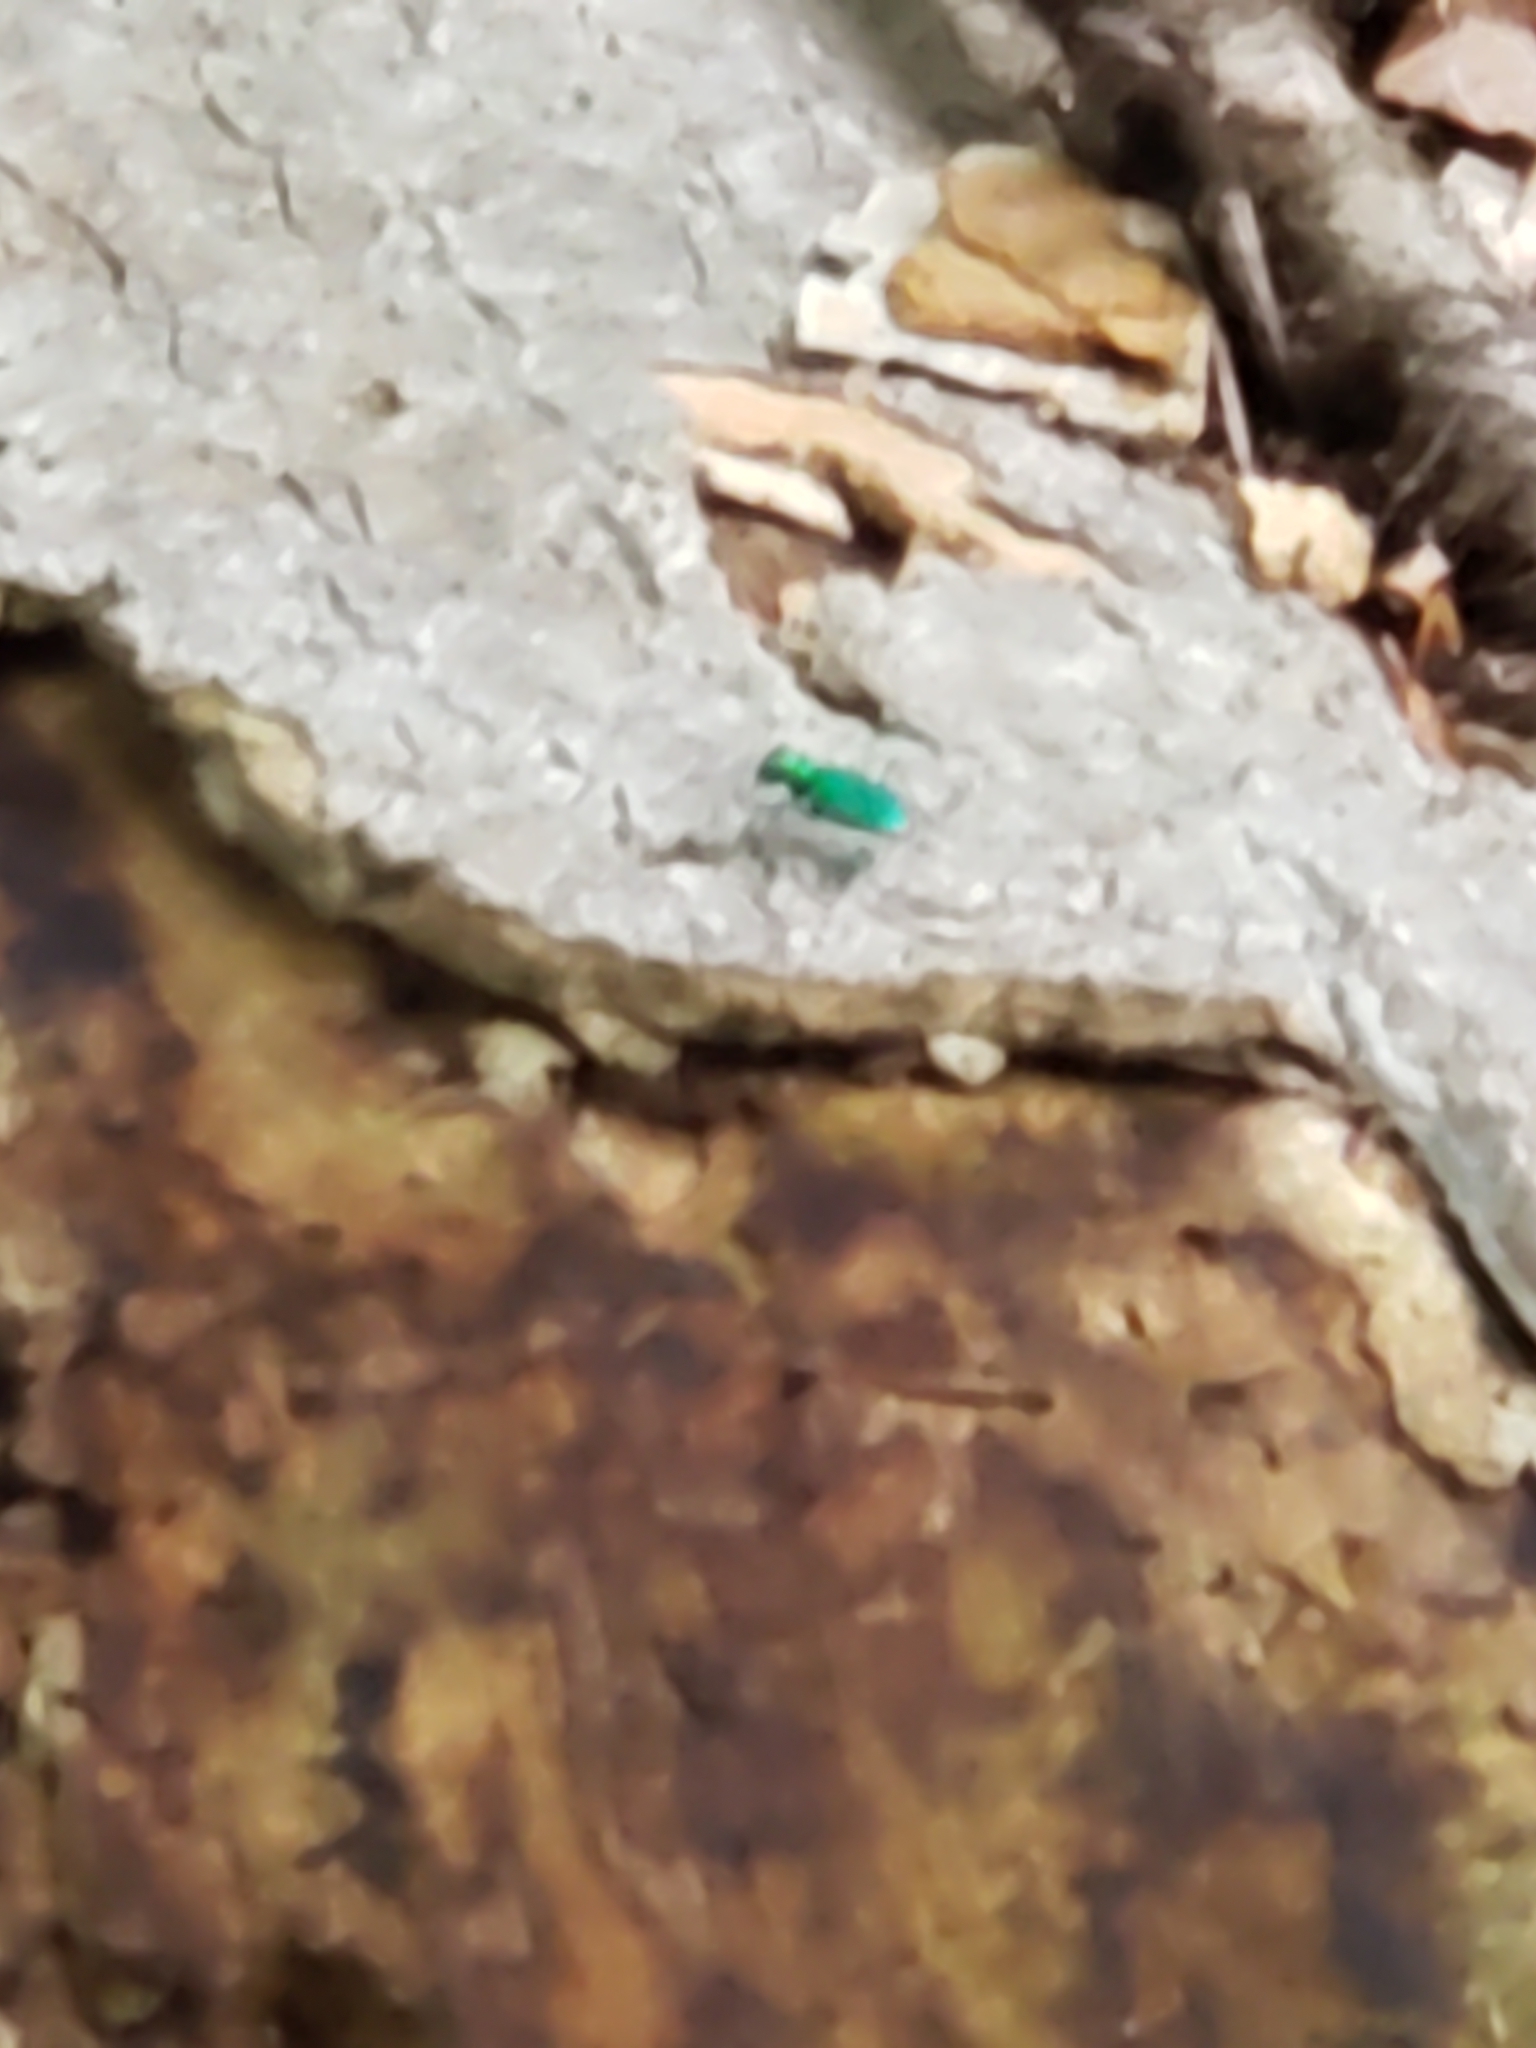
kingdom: Animalia
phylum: Arthropoda
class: Insecta
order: Coleoptera
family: Carabidae
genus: Cicindela
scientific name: Cicindela sexguttata
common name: Six-spotted tiger beetle
